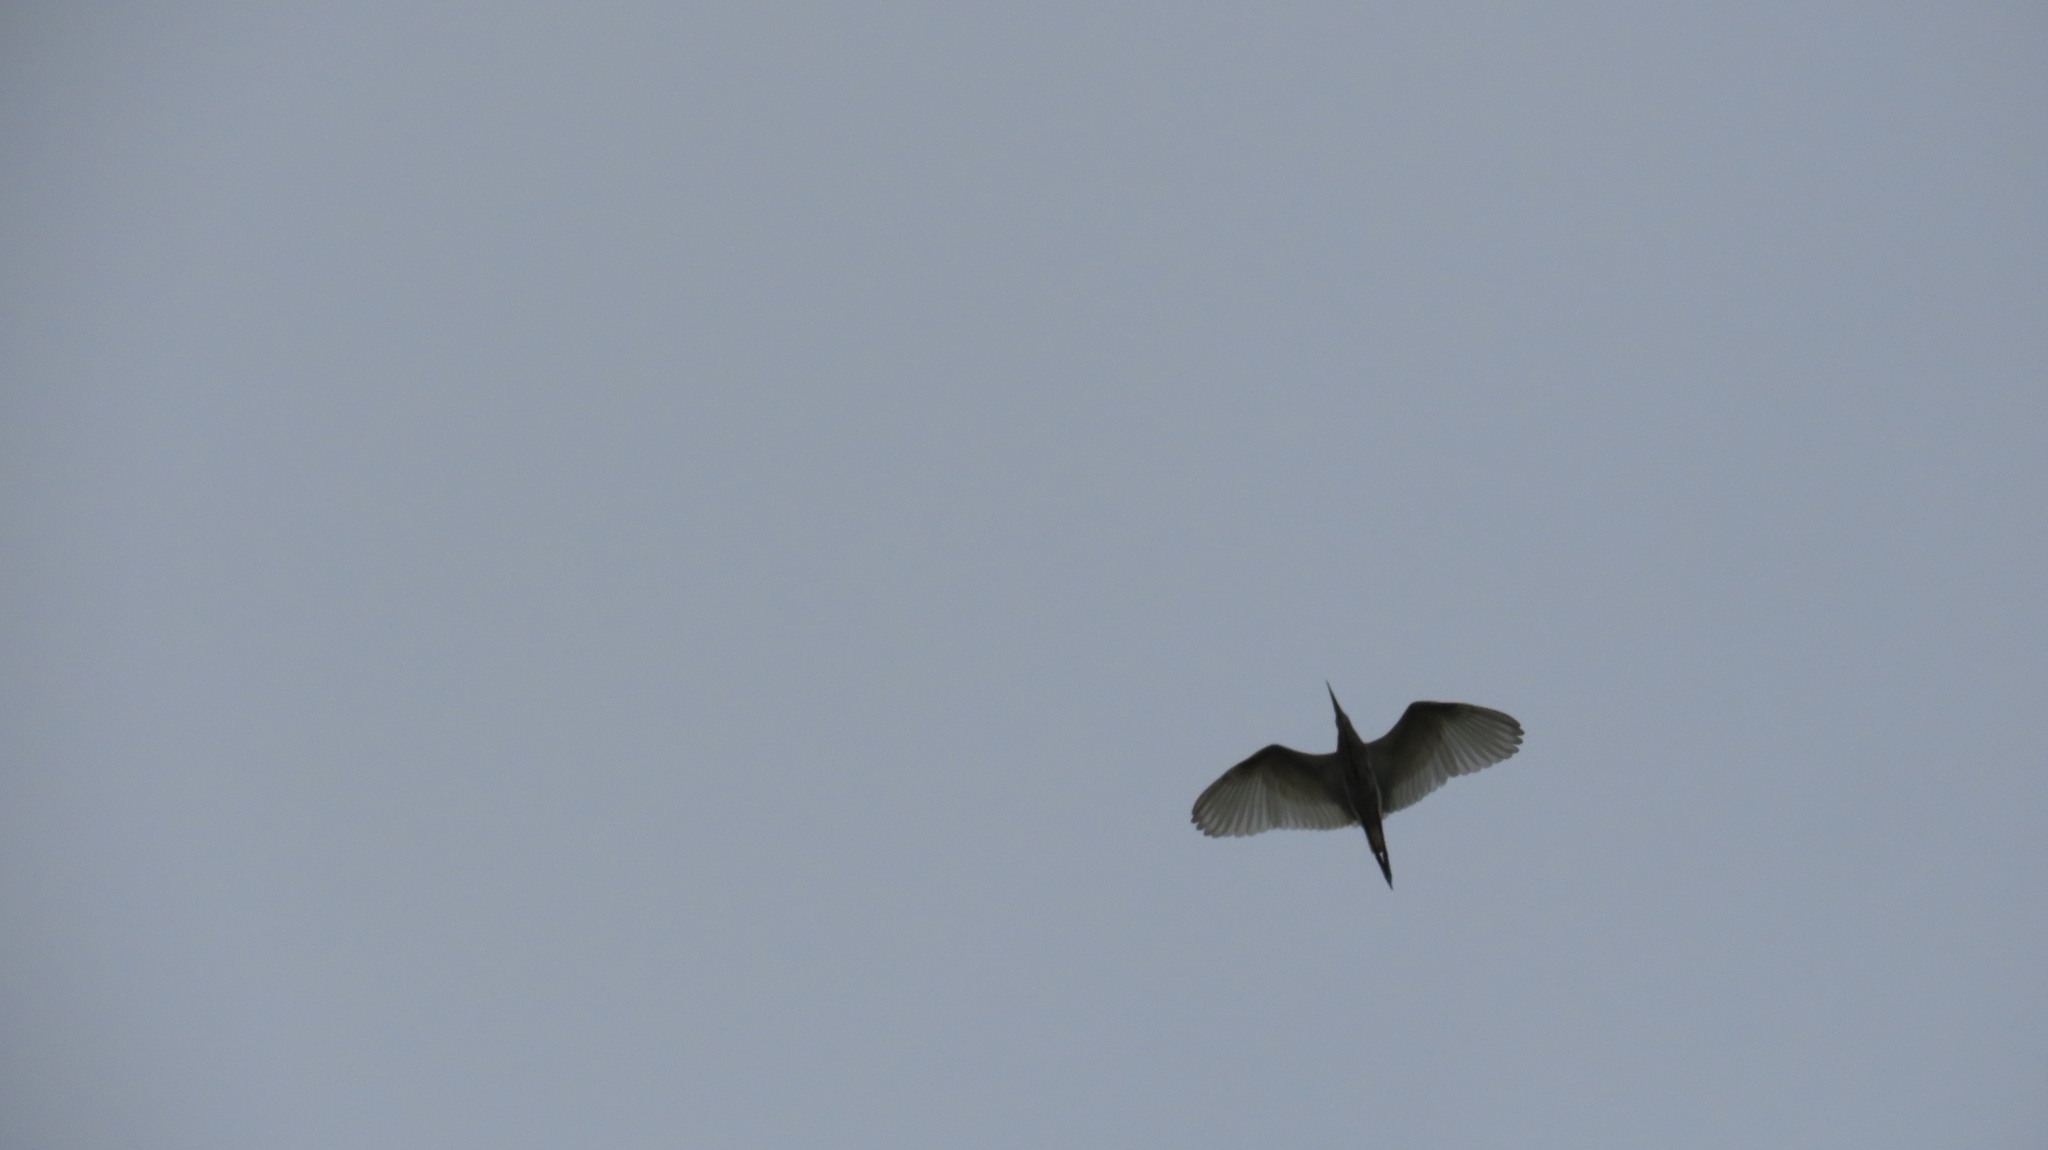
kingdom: Animalia
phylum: Chordata
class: Aves
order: Pelecaniformes
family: Ardeidae
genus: Ardeola
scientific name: Ardeola grayii
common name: Indian pond heron
